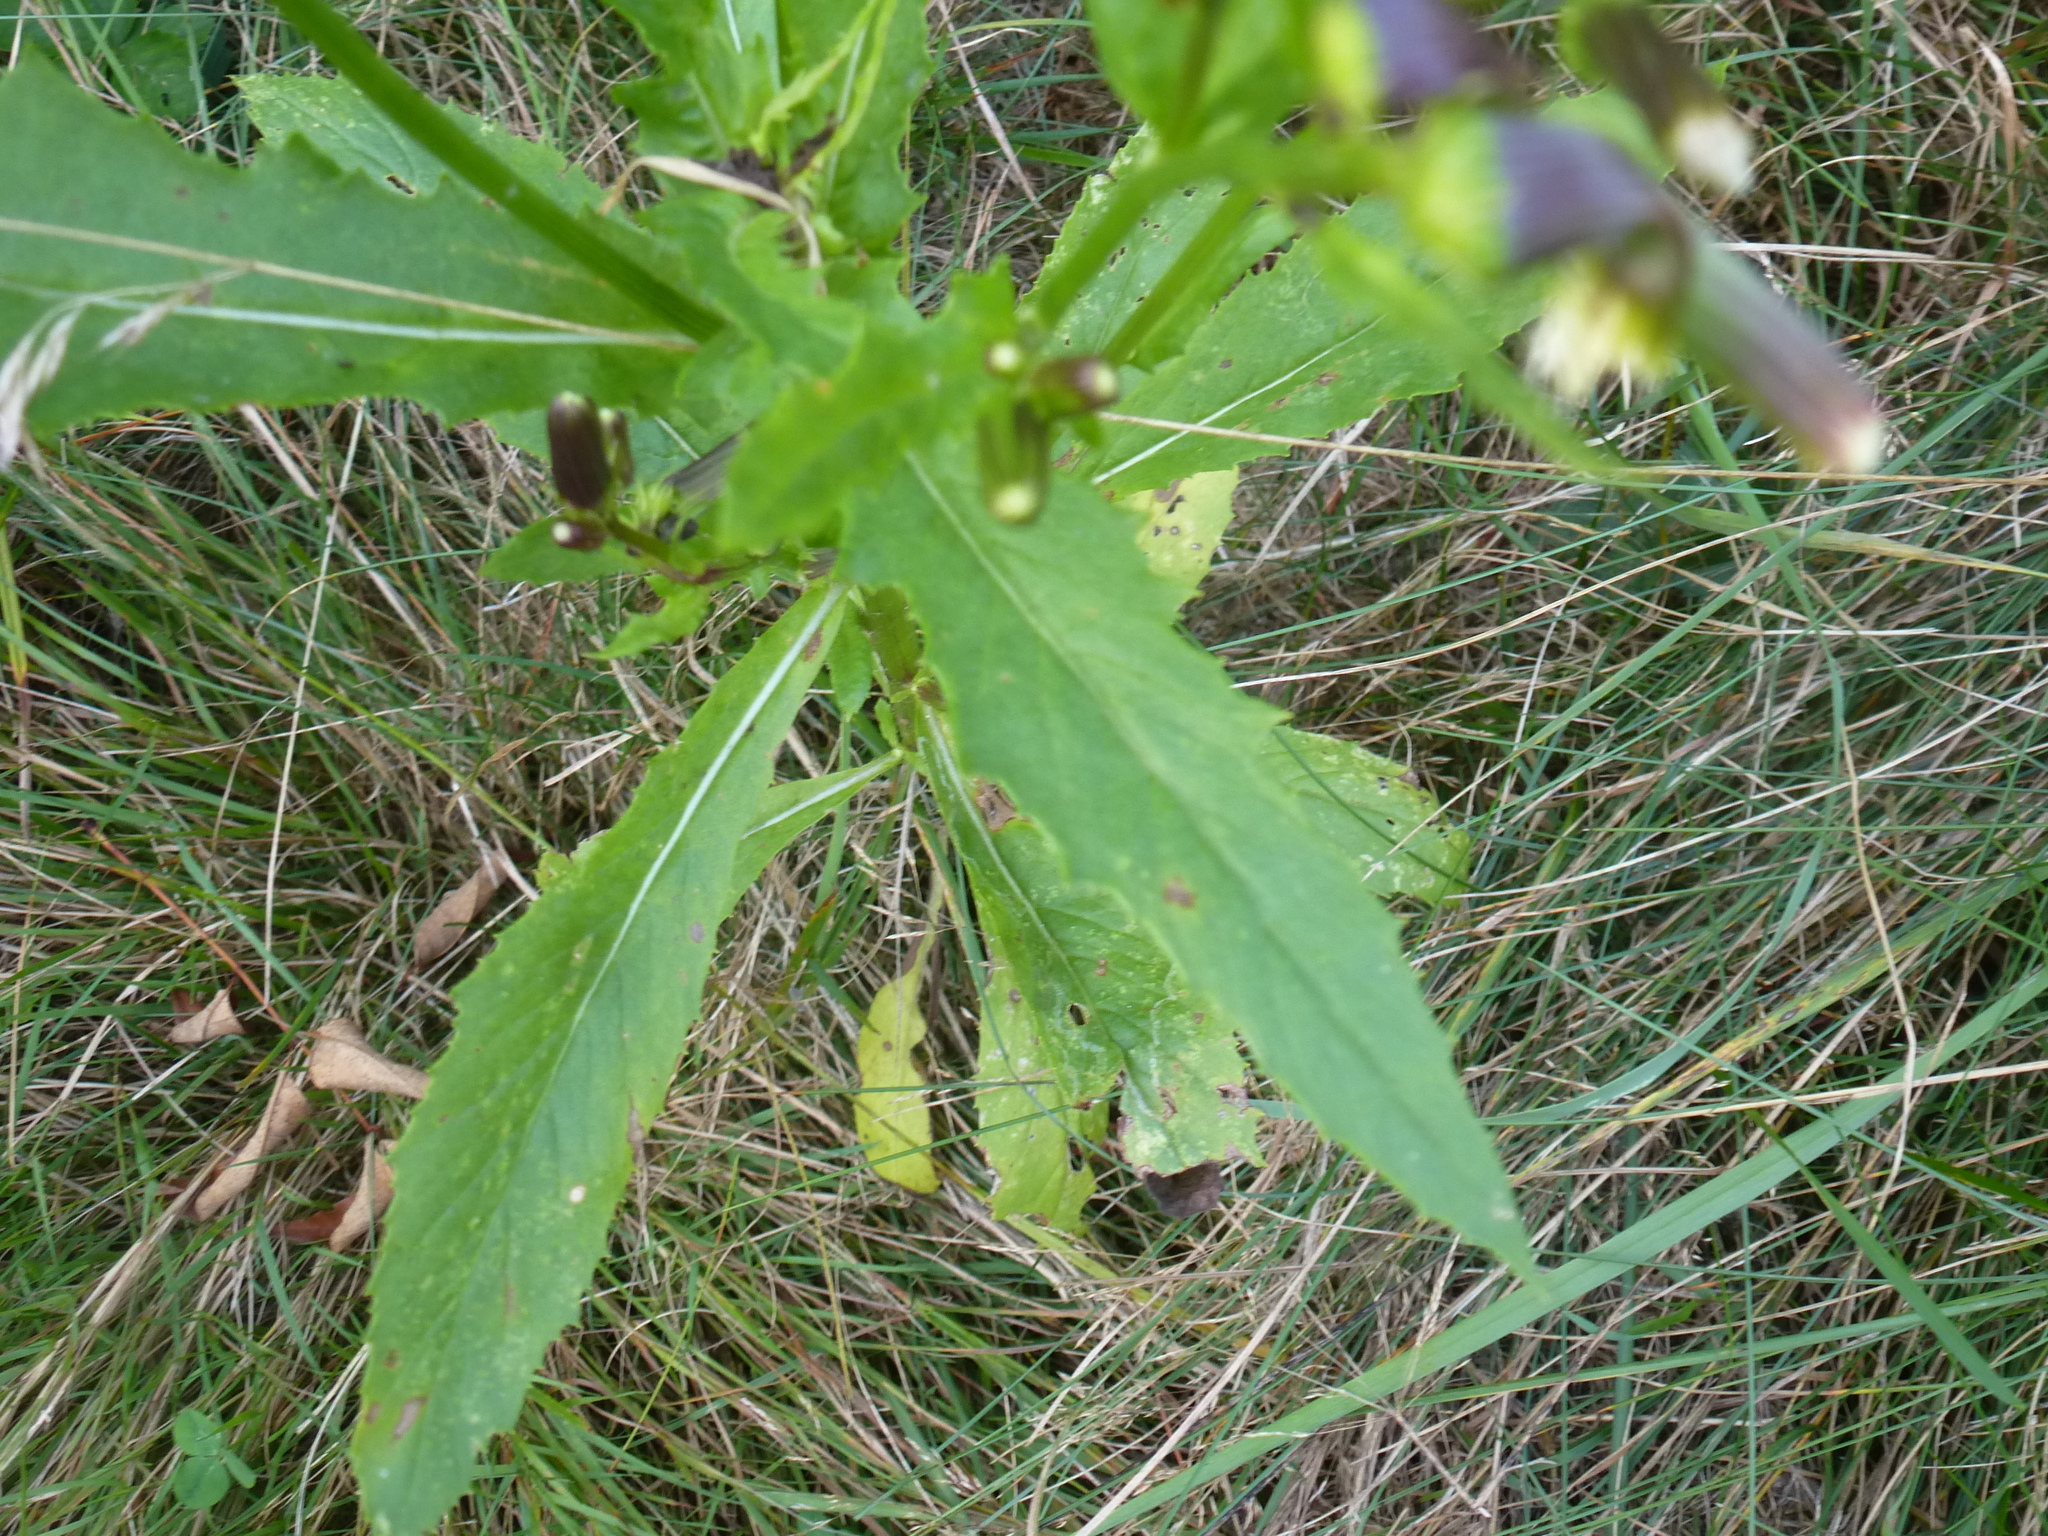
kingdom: Plantae
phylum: Tracheophyta
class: Magnoliopsida
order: Asterales
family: Asteraceae
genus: Erechtites
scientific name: Erechtites hieraciifolius
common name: American burnweed
